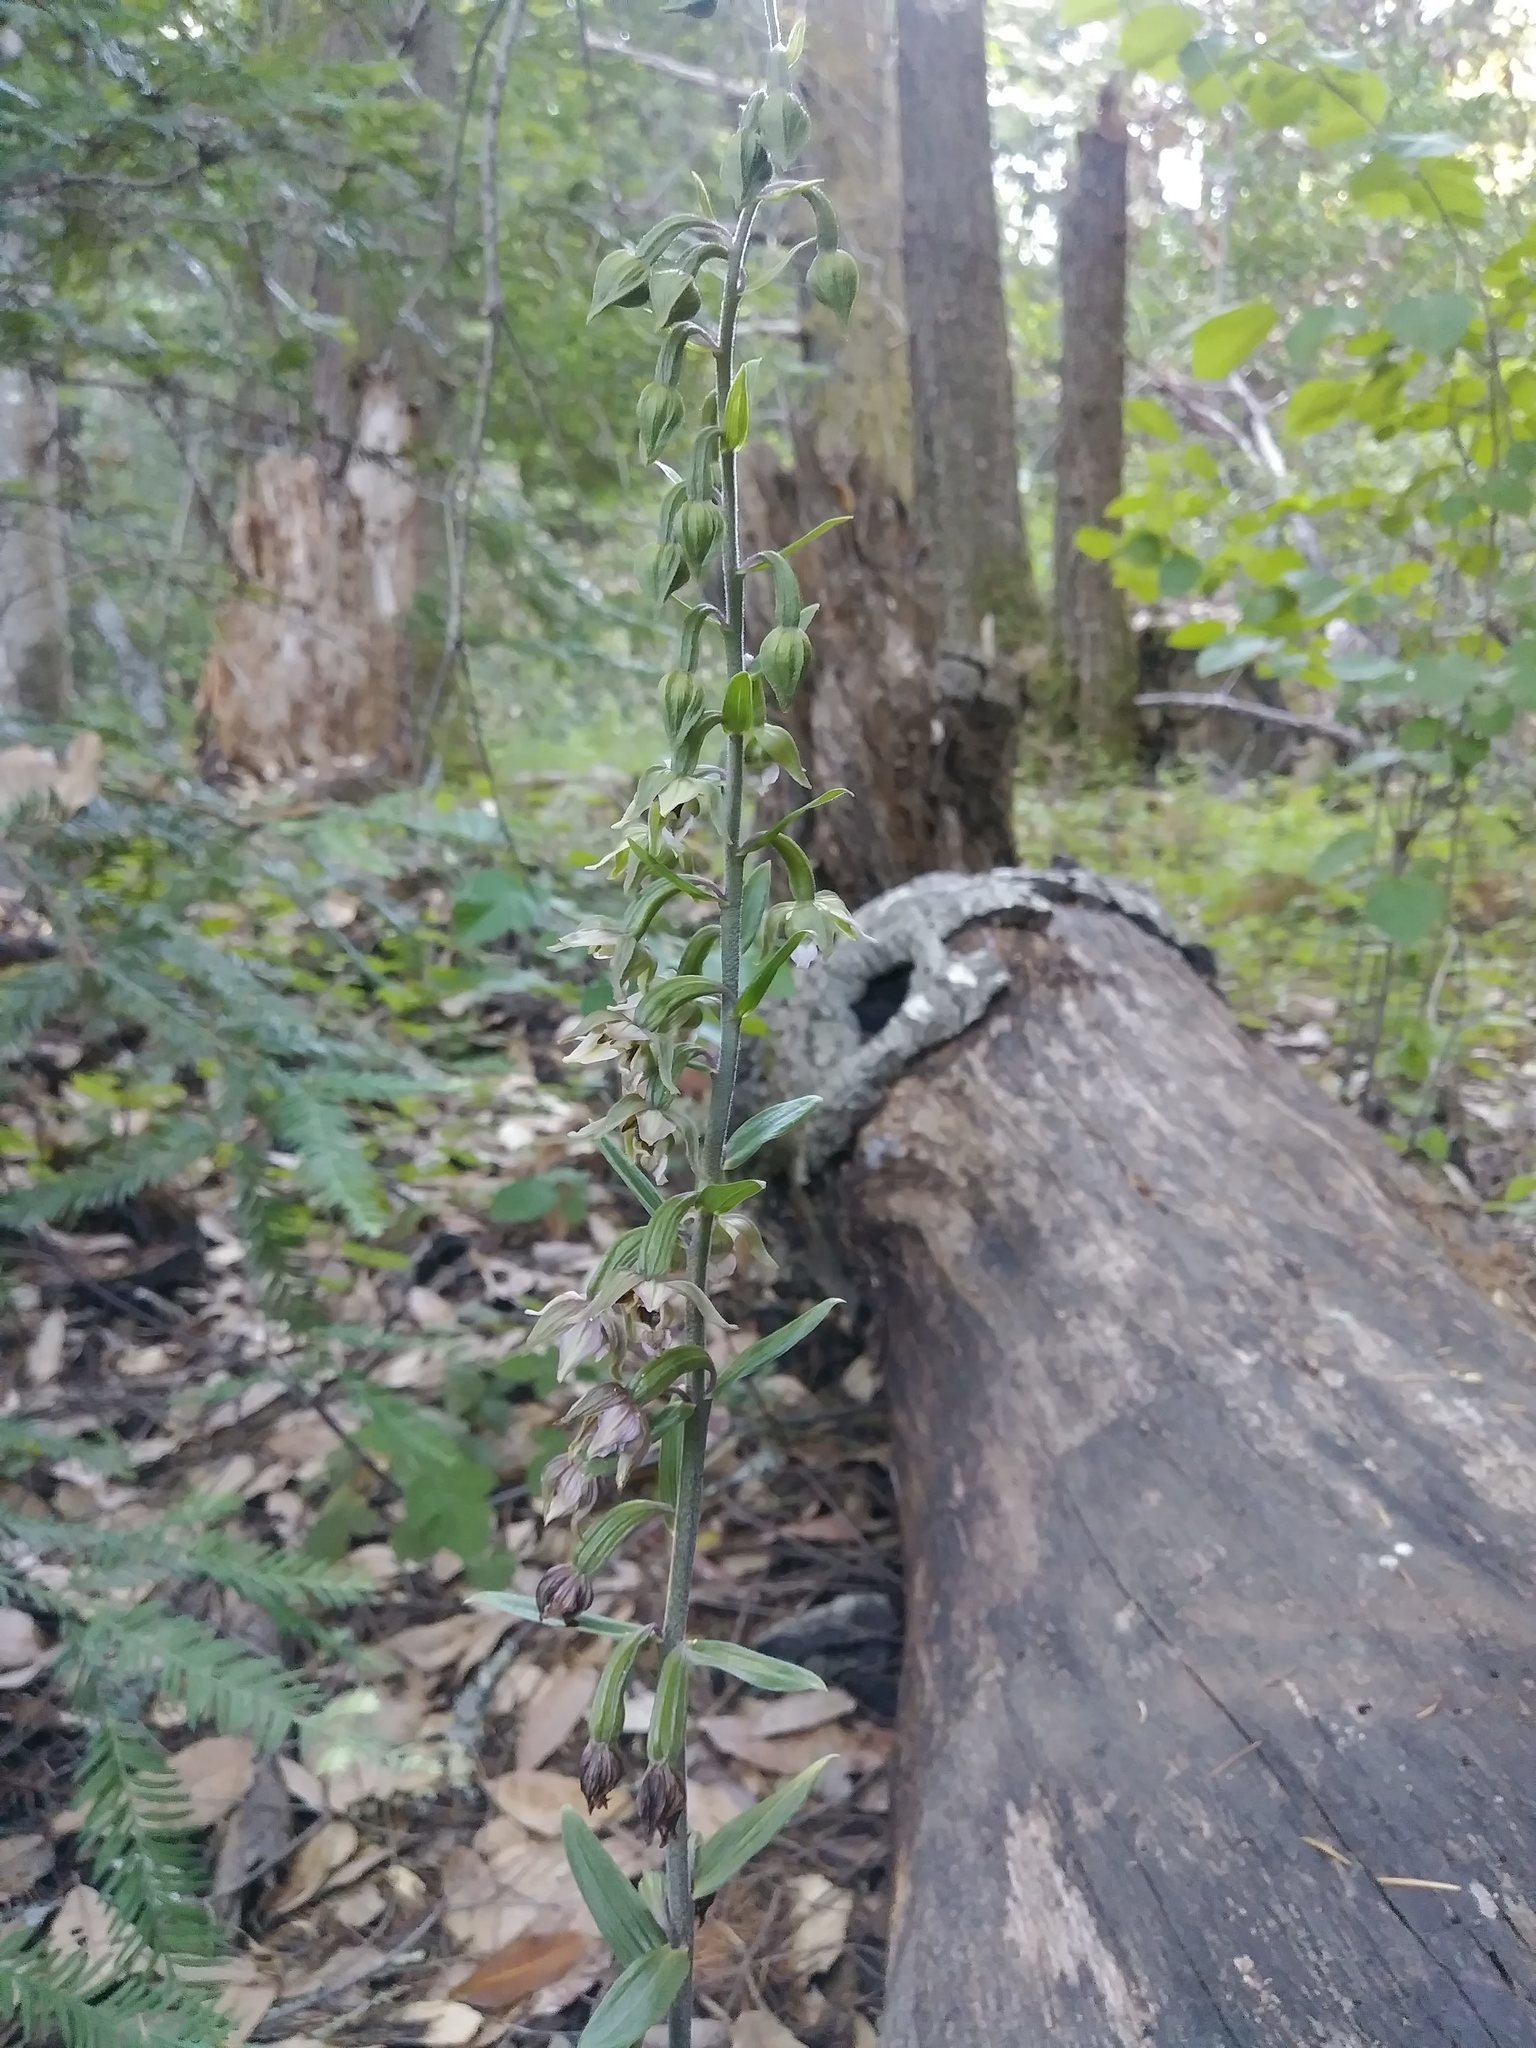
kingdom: Plantae
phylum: Tracheophyta
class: Liliopsida
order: Asparagales
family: Orchidaceae
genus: Epipactis
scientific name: Epipactis helleborine
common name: Broad-leaved helleborine
